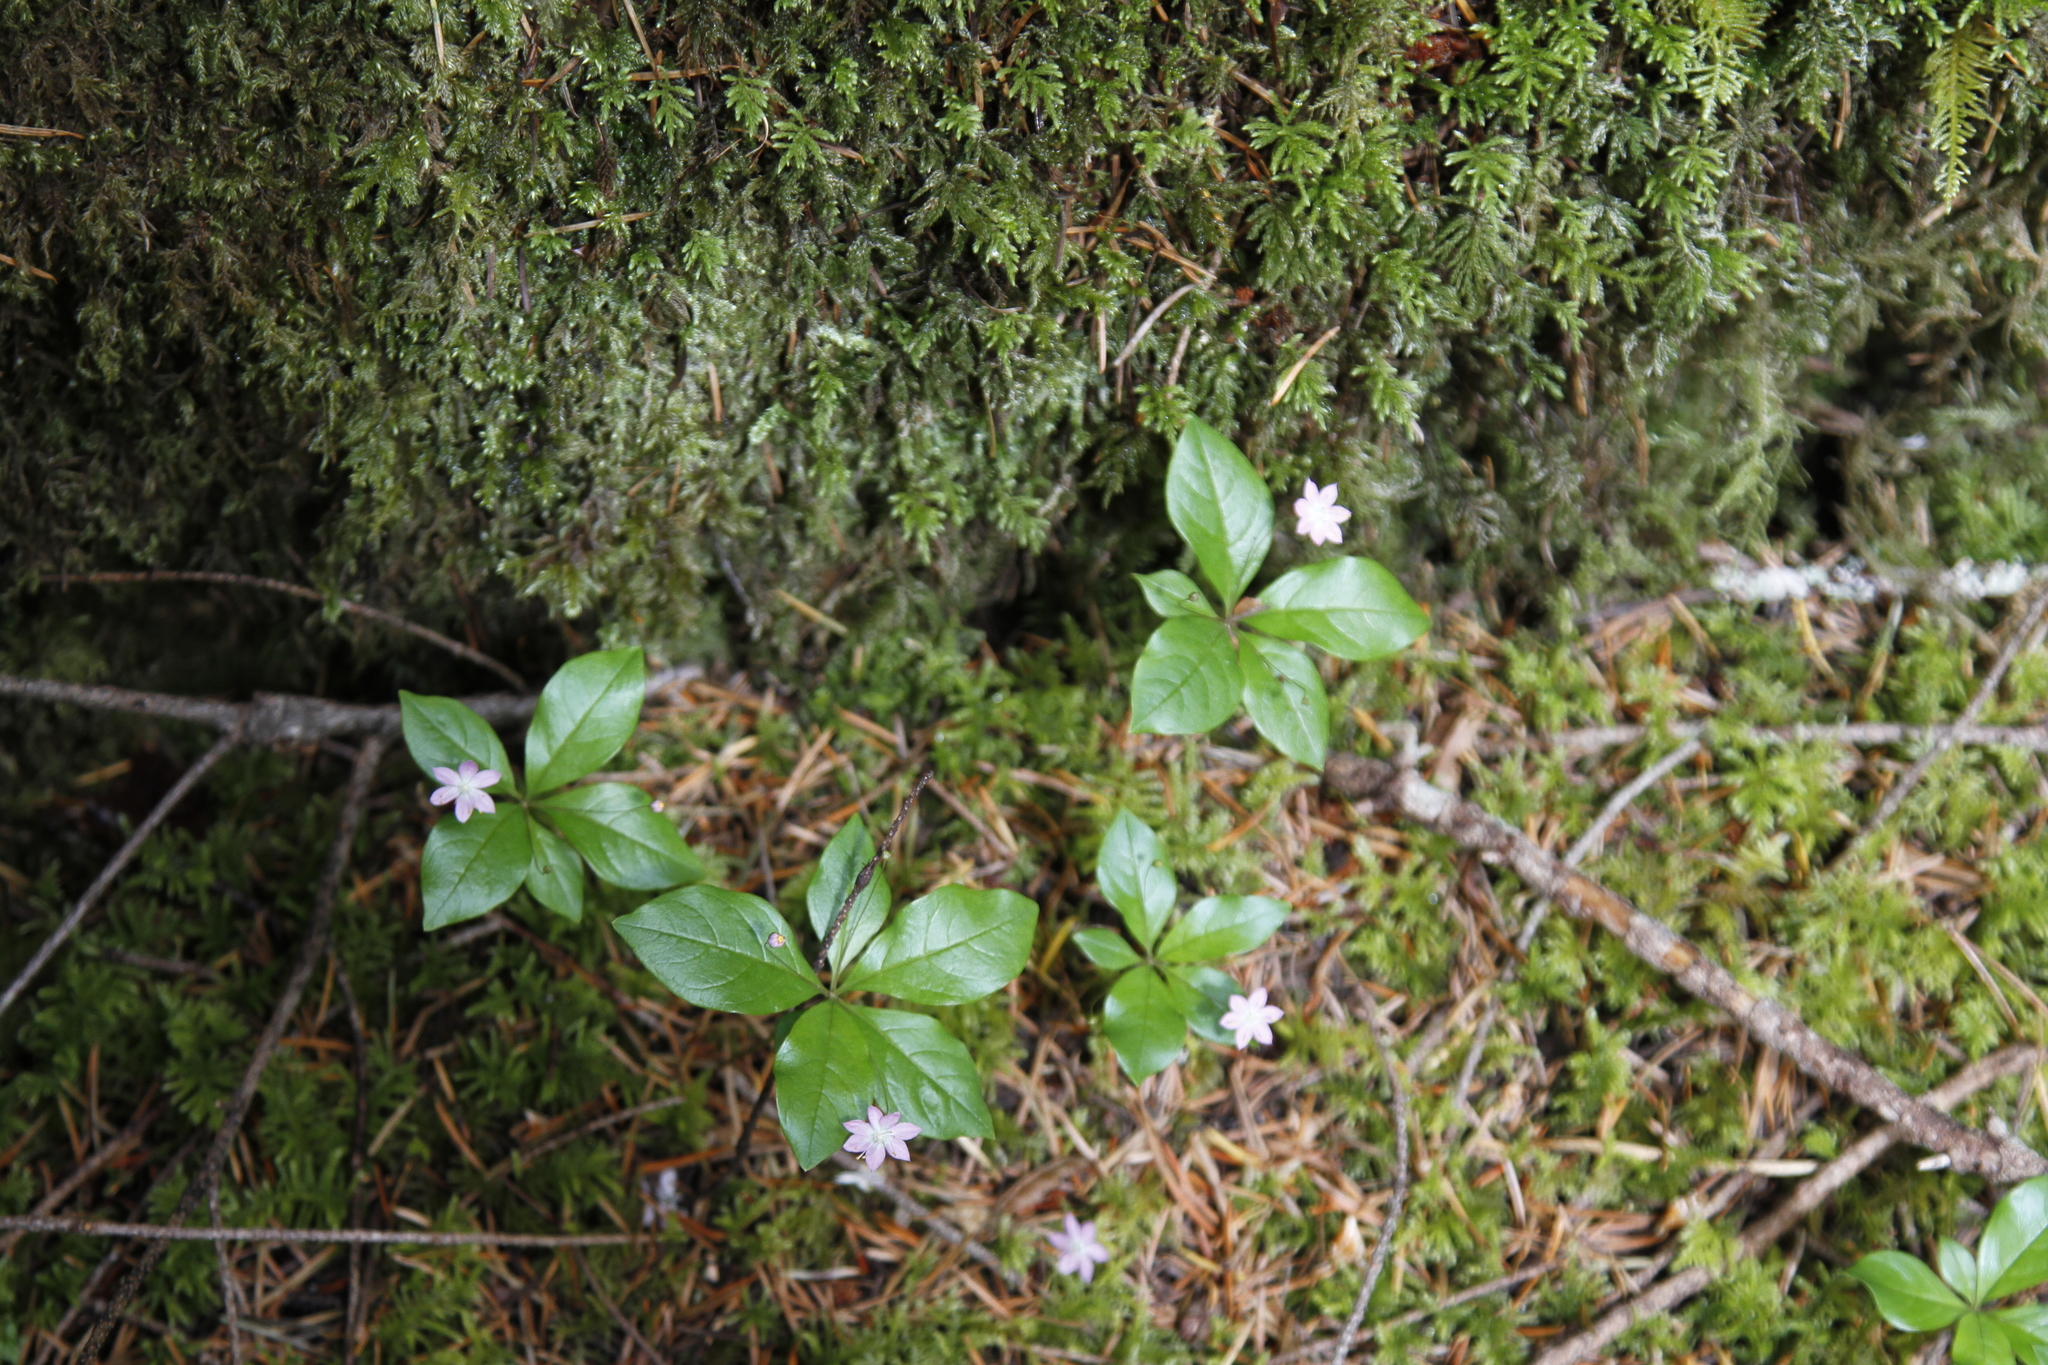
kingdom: Plantae
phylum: Tracheophyta
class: Magnoliopsida
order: Ericales
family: Primulaceae
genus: Lysimachia
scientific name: Lysimachia latifolia
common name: Pacific starflower
